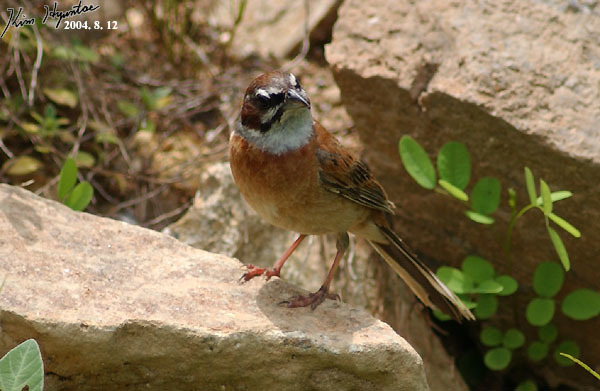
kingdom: Animalia
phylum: Chordata
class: Aves
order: Passeriformes
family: Emberizidae
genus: Emberiza
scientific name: Emberiza cioides
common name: Meadow bunting
